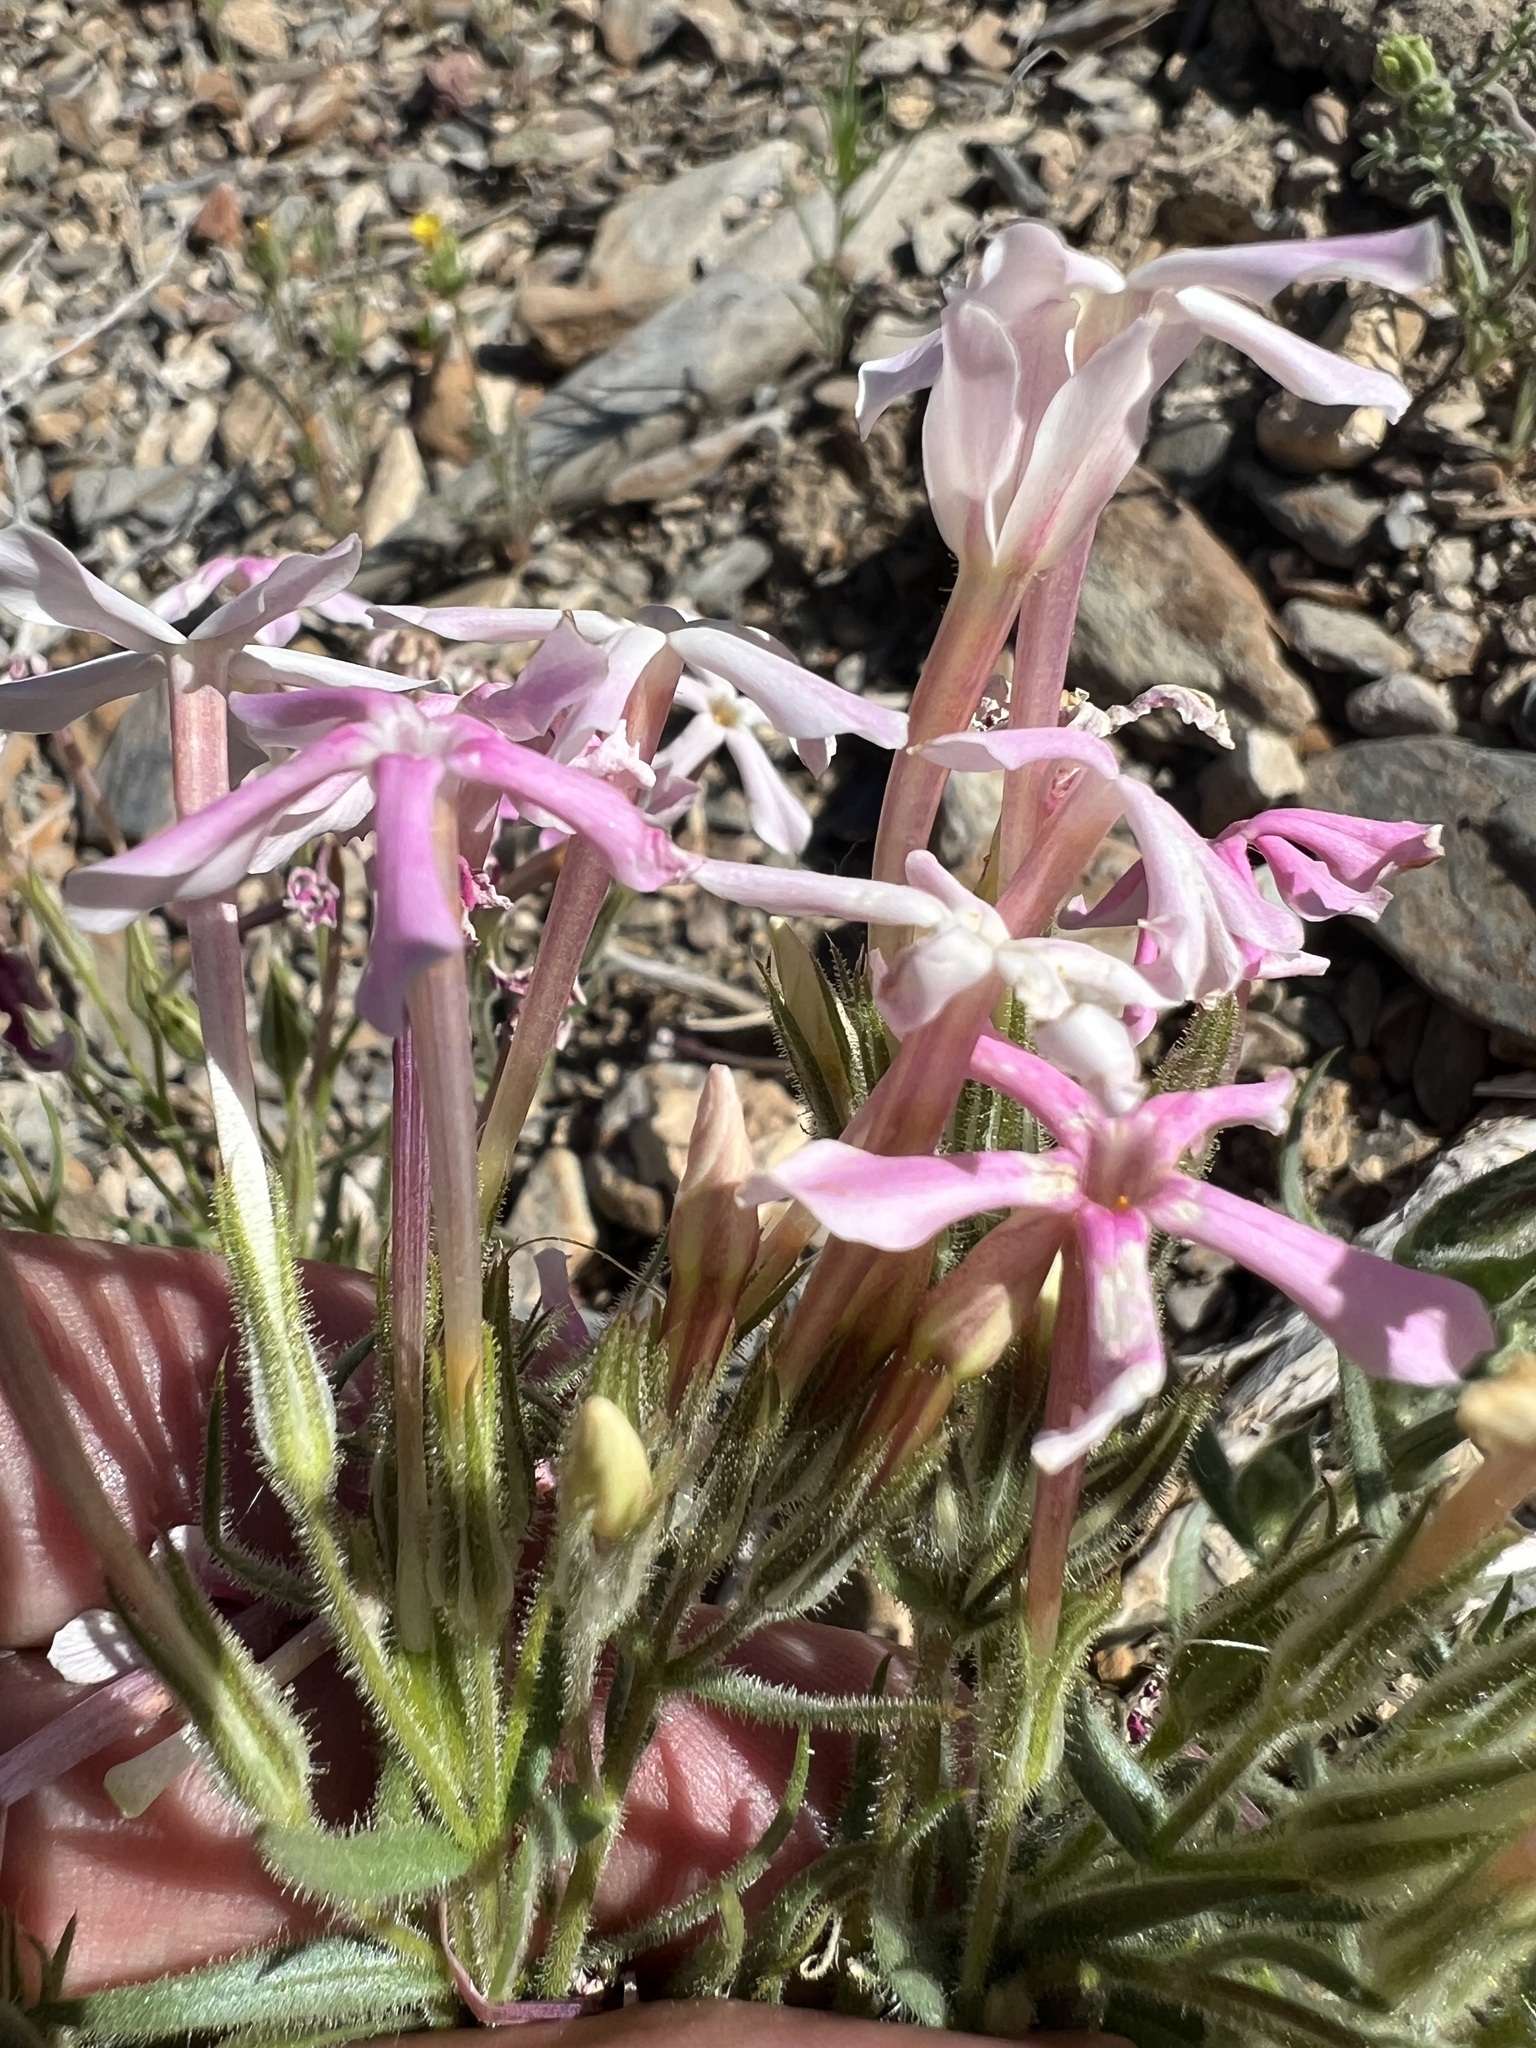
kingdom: Plantae
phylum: Tracheophyta
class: Magnoliopsida
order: Ericales
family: Polemoniaceae
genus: Phlox
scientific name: Phlox longifolia
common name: Longleaf phlox
